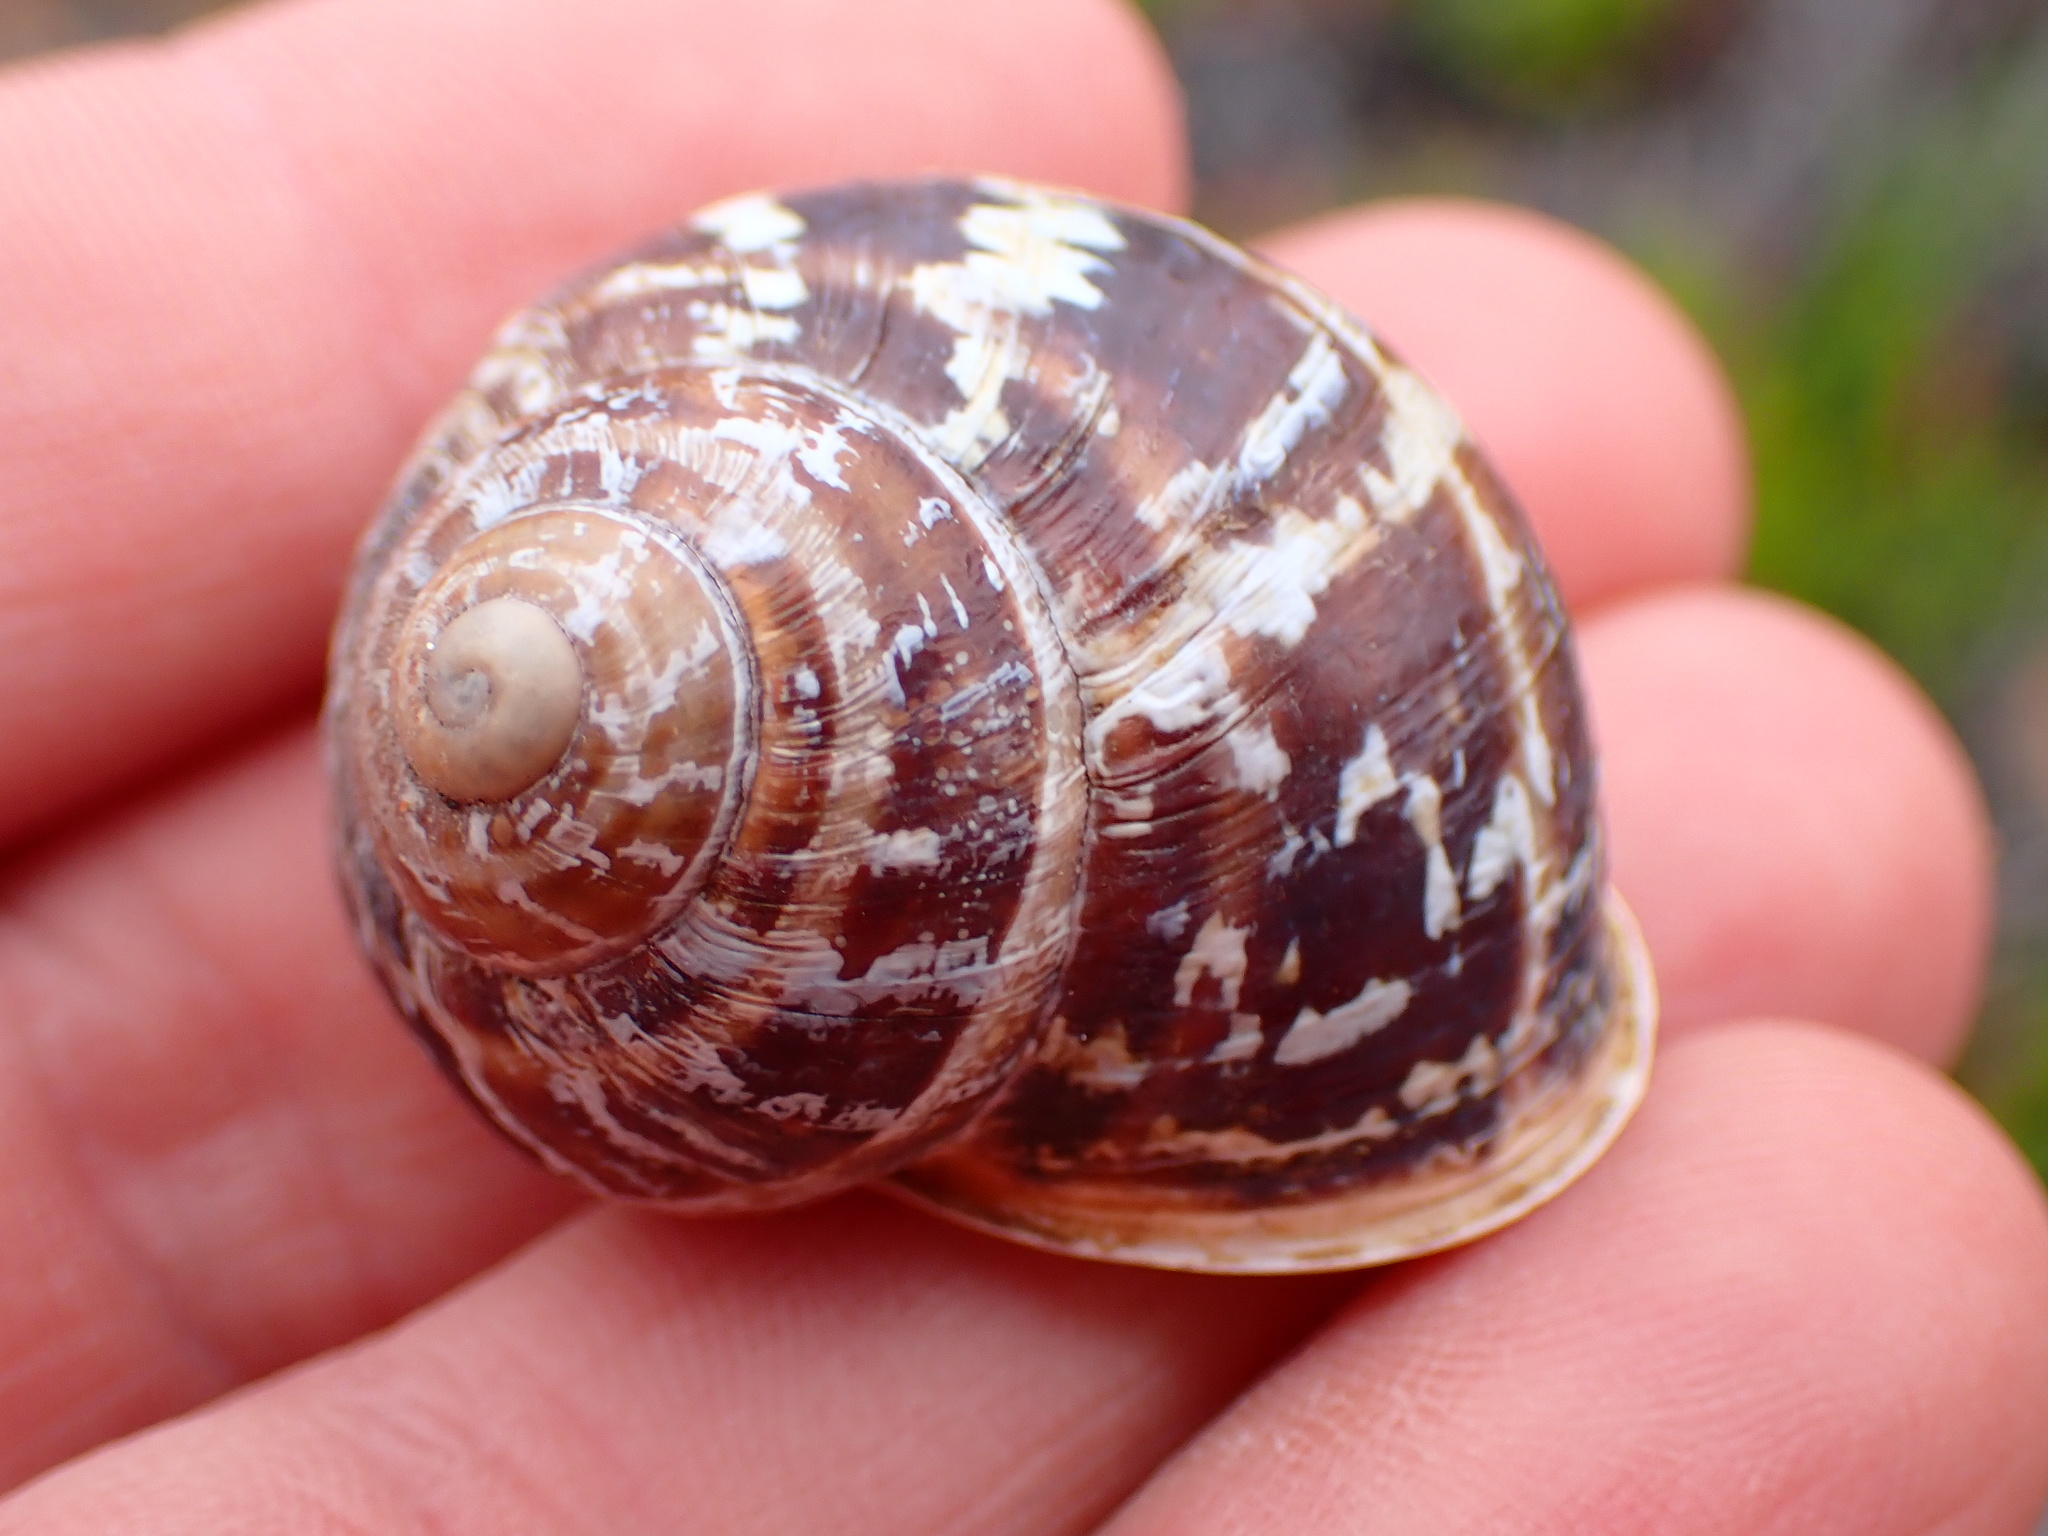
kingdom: Animalia
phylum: Mollusca
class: Gastropoda
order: Stylommatophora
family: Helicidae
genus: Cornu
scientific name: Cornu aspersum
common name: Brown garden snail
